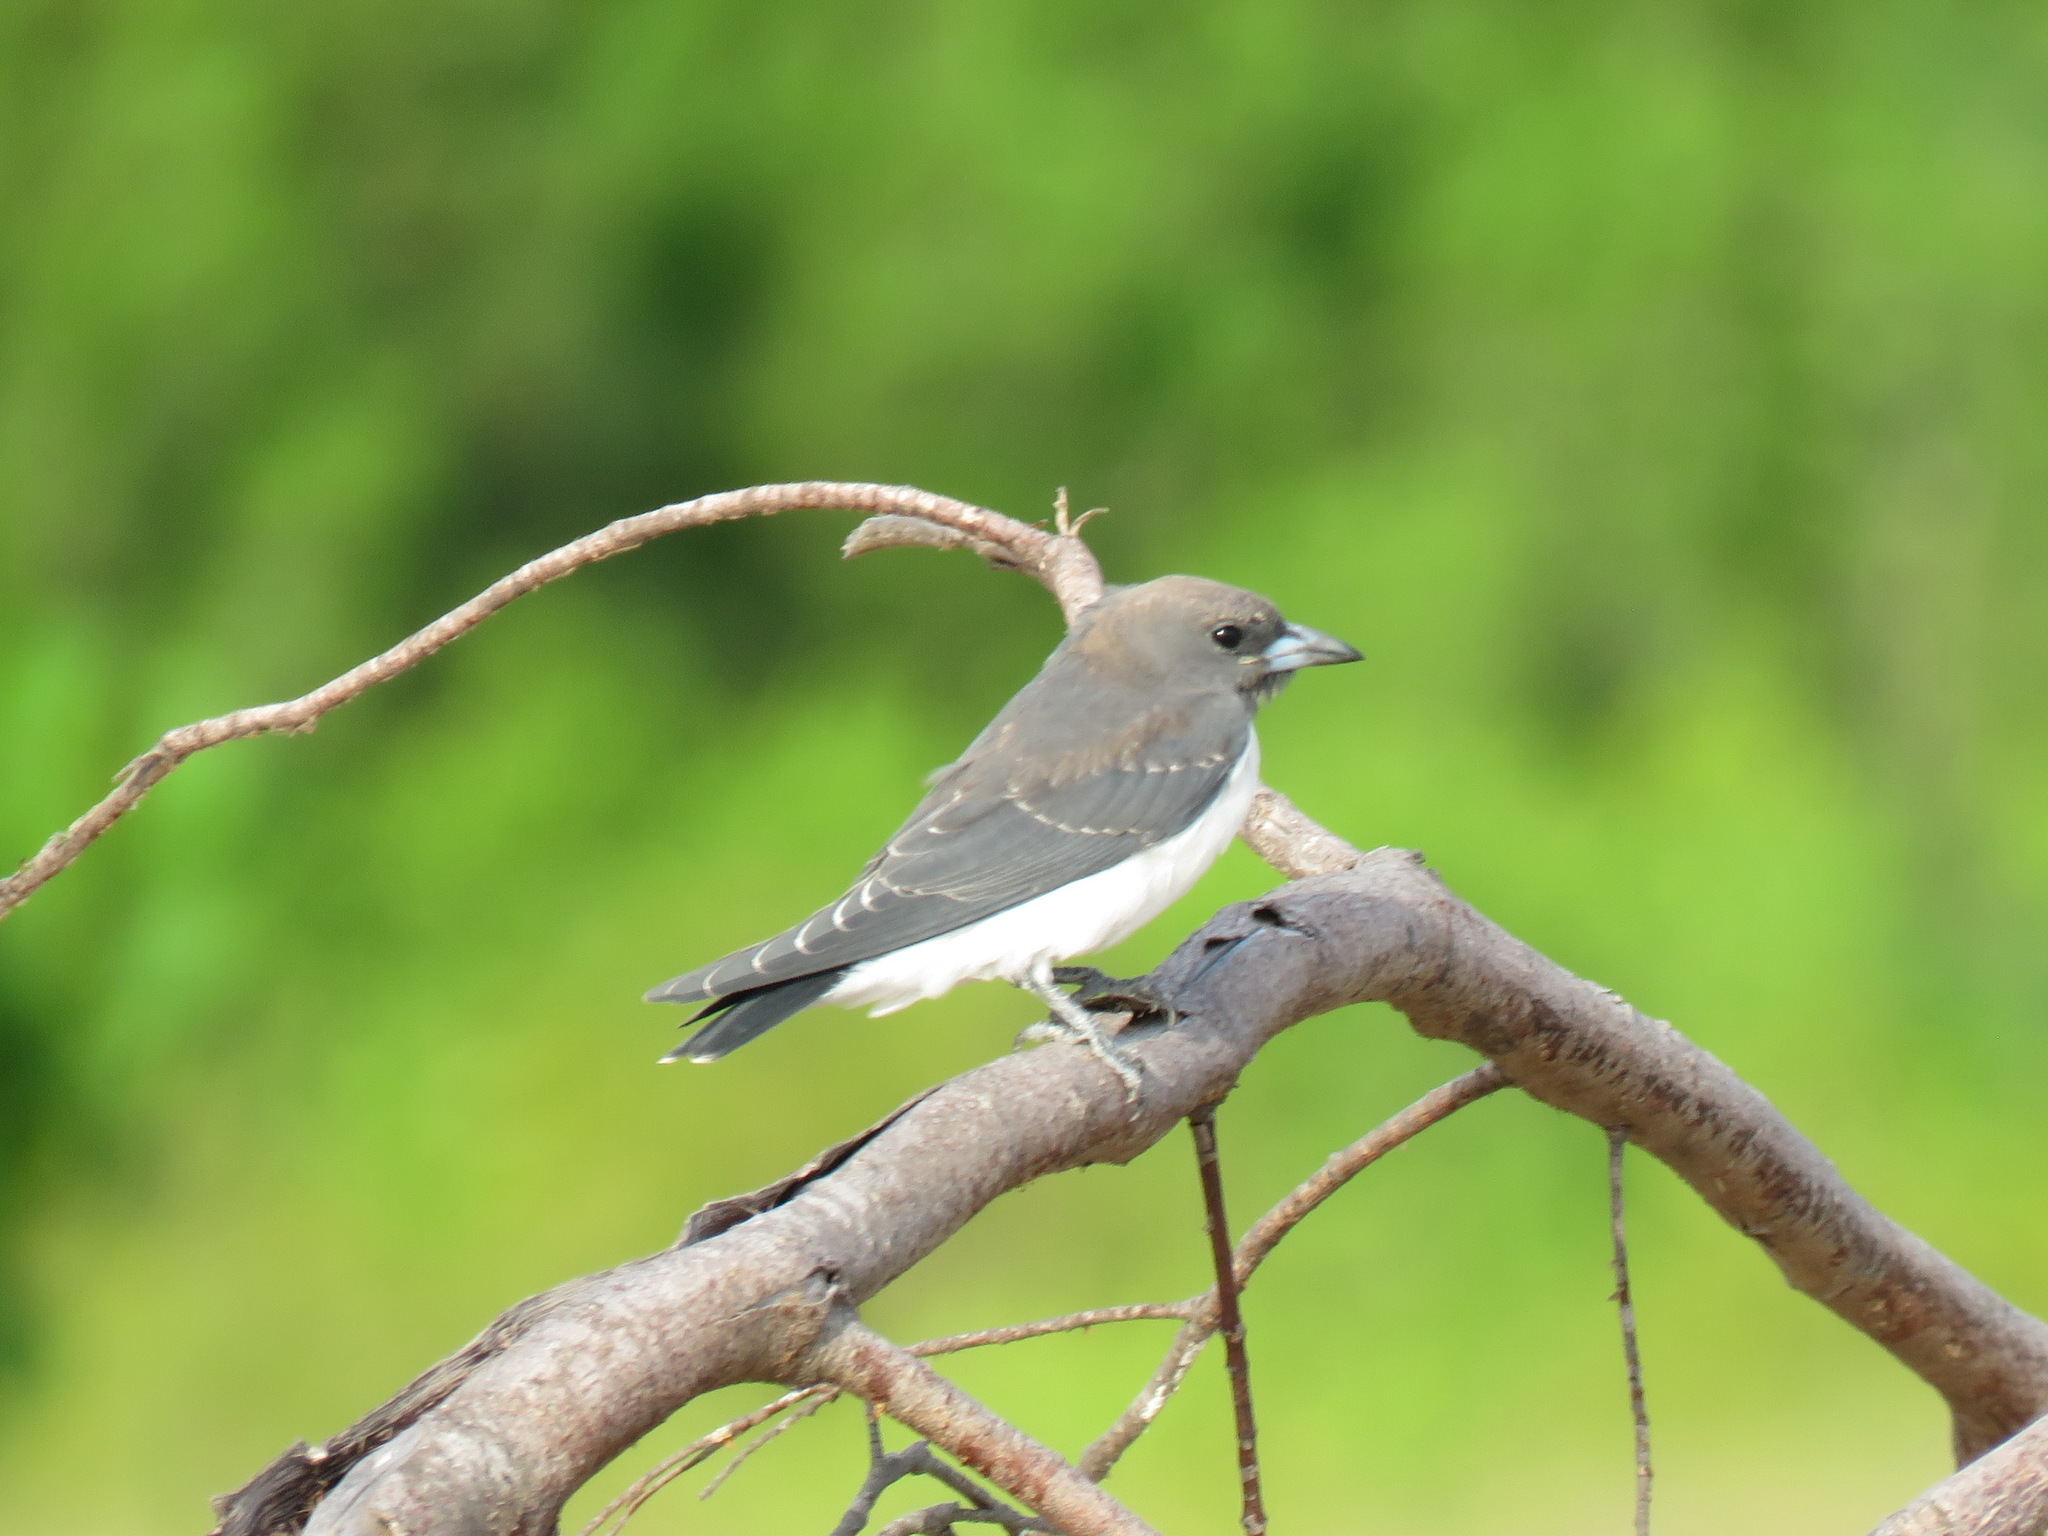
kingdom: Animalia
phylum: Chordata
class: Aves
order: Passeriformes
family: Artamidae
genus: Artamus
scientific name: Artamus leucoryn
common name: White-breasted woodswallow
